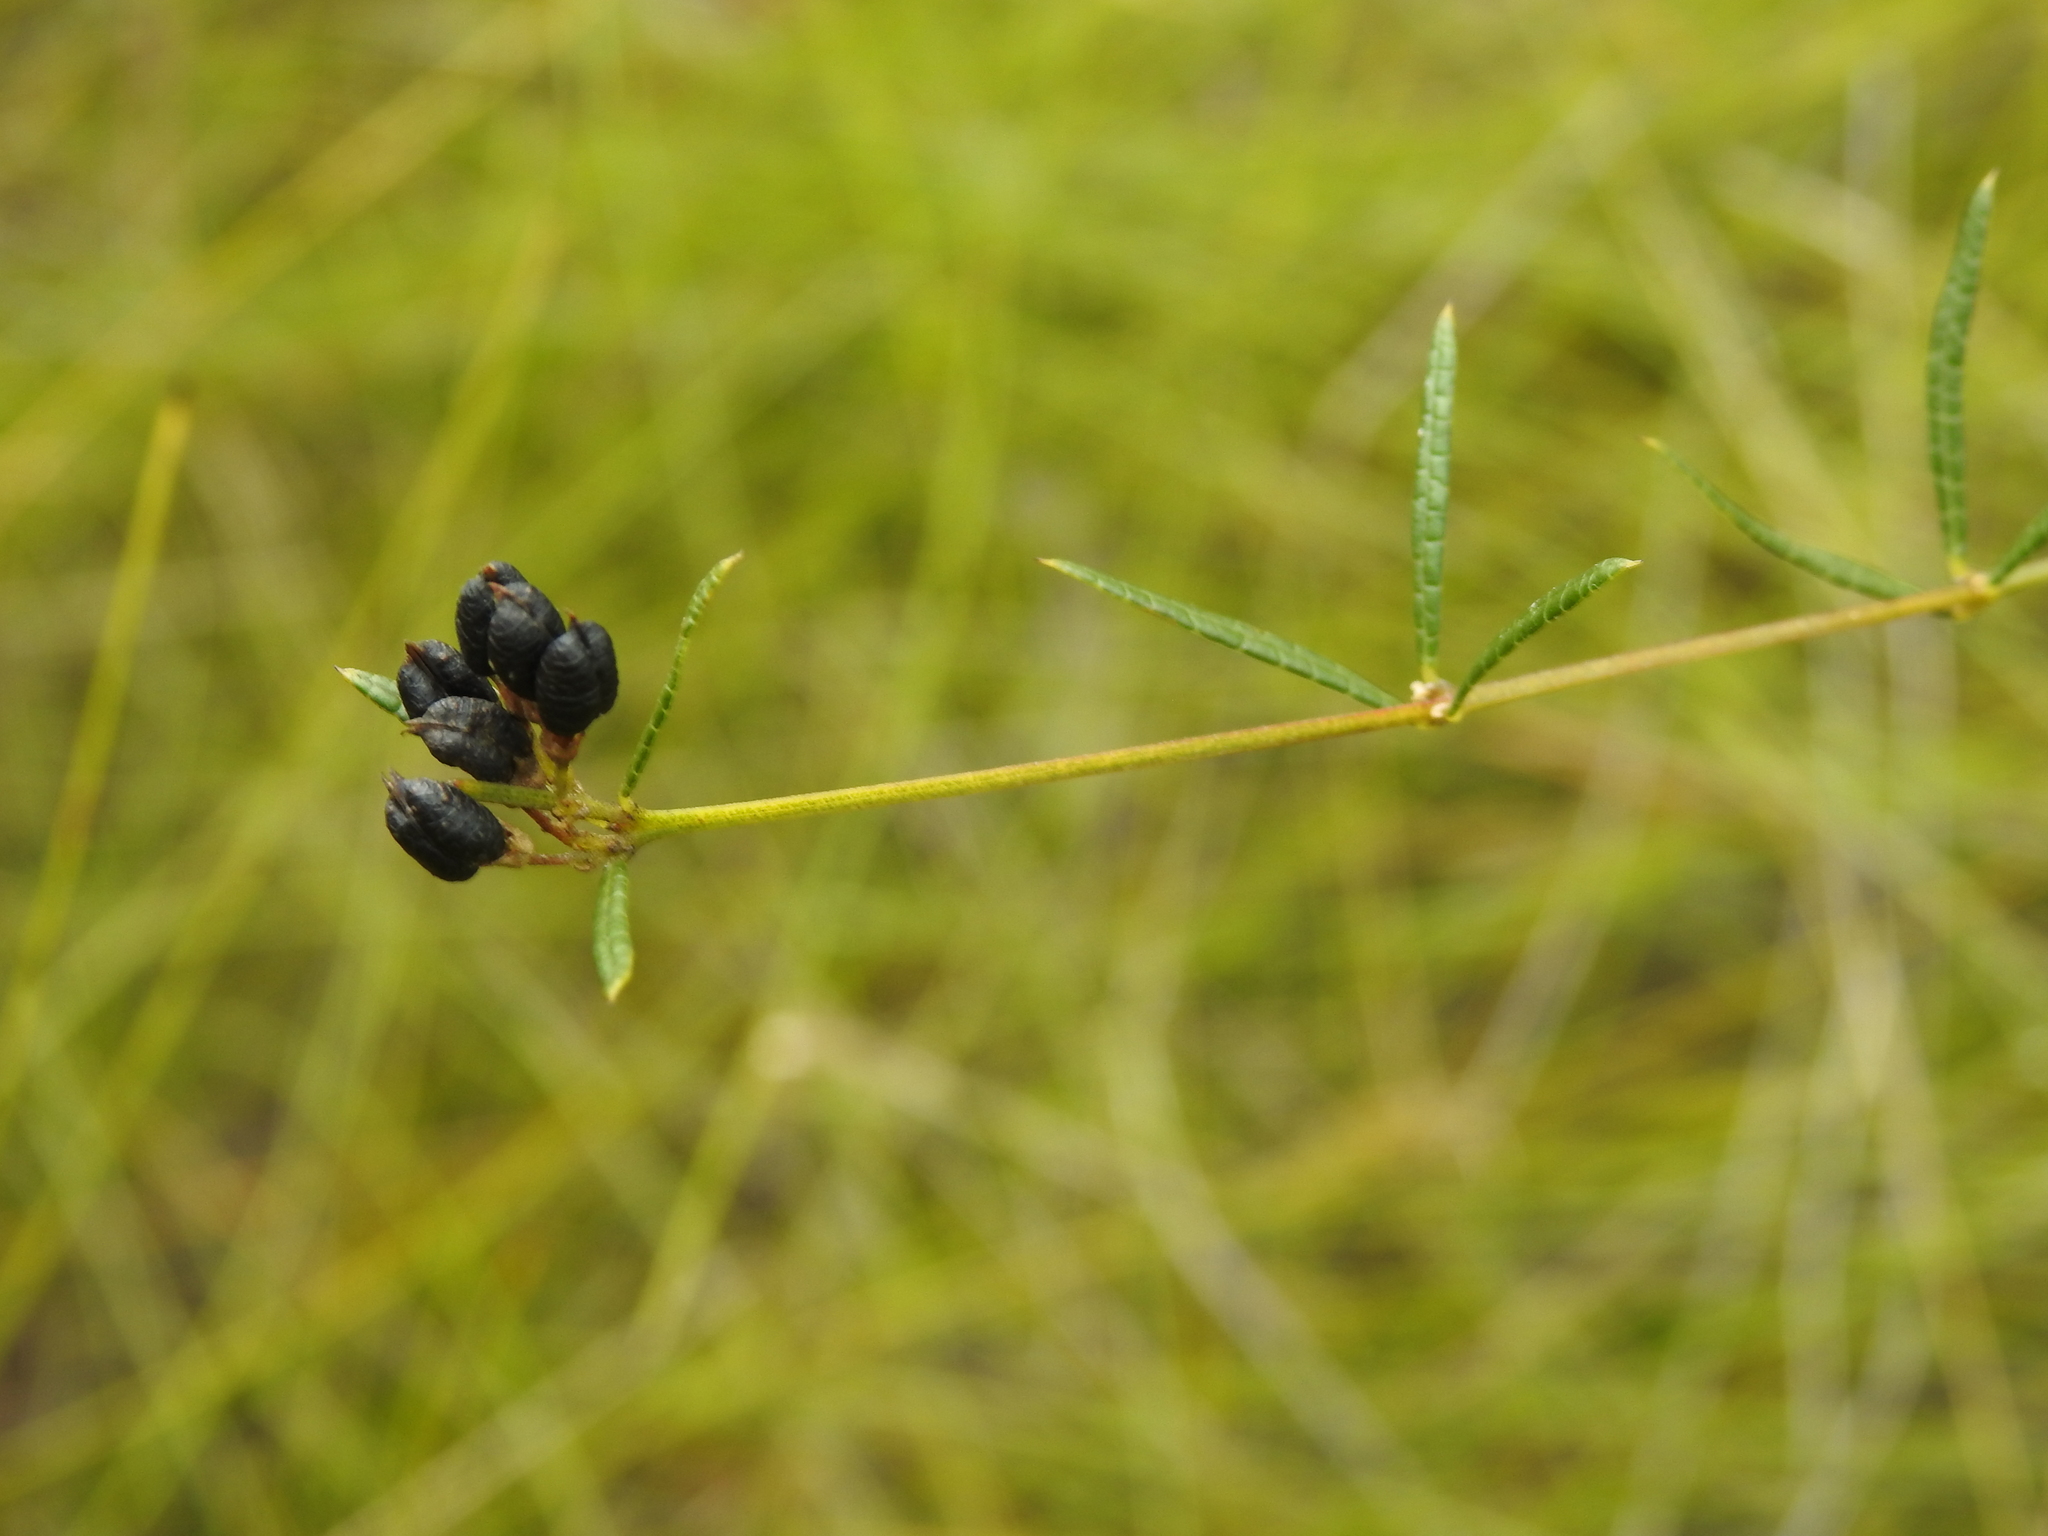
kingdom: Plantae
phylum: Tracheophyta
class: Magnoliopsida
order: Fabales
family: Fabaceae
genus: Mirbelia
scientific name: Mirbelia rubiifolia
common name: Heathy mirbelia
